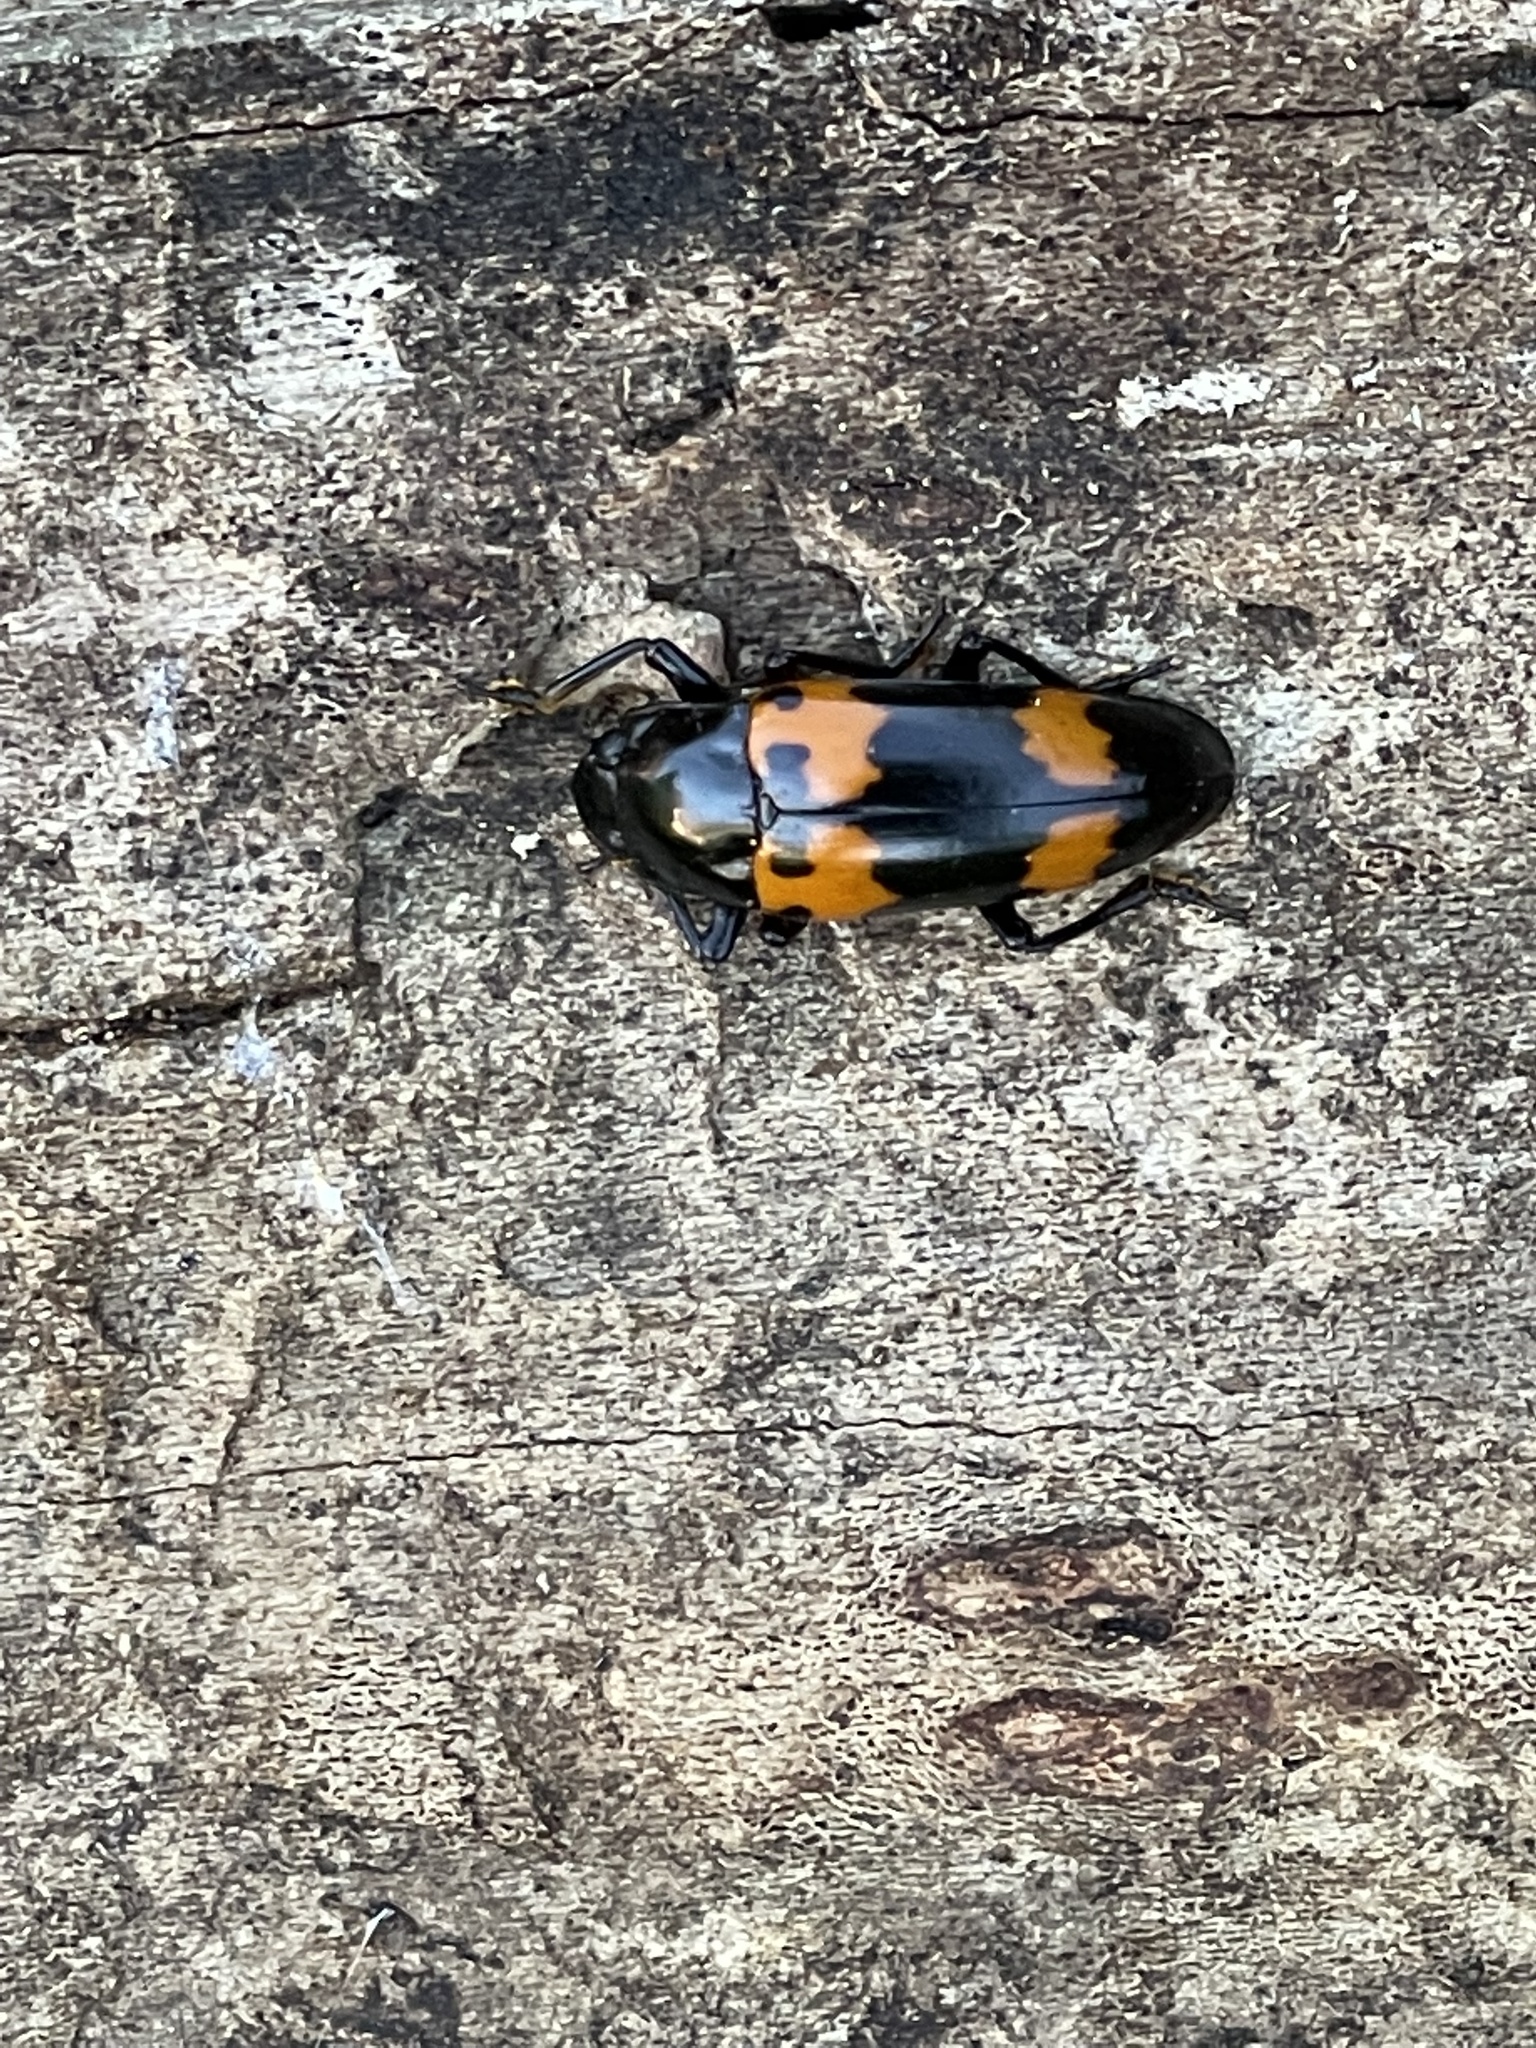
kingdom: Animalia
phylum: Arthropoda
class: Insecta
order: Coleoptera
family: Erotylidae
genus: Megalodacne
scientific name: Megalodacne heros
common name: Pleasing fungus beetle
